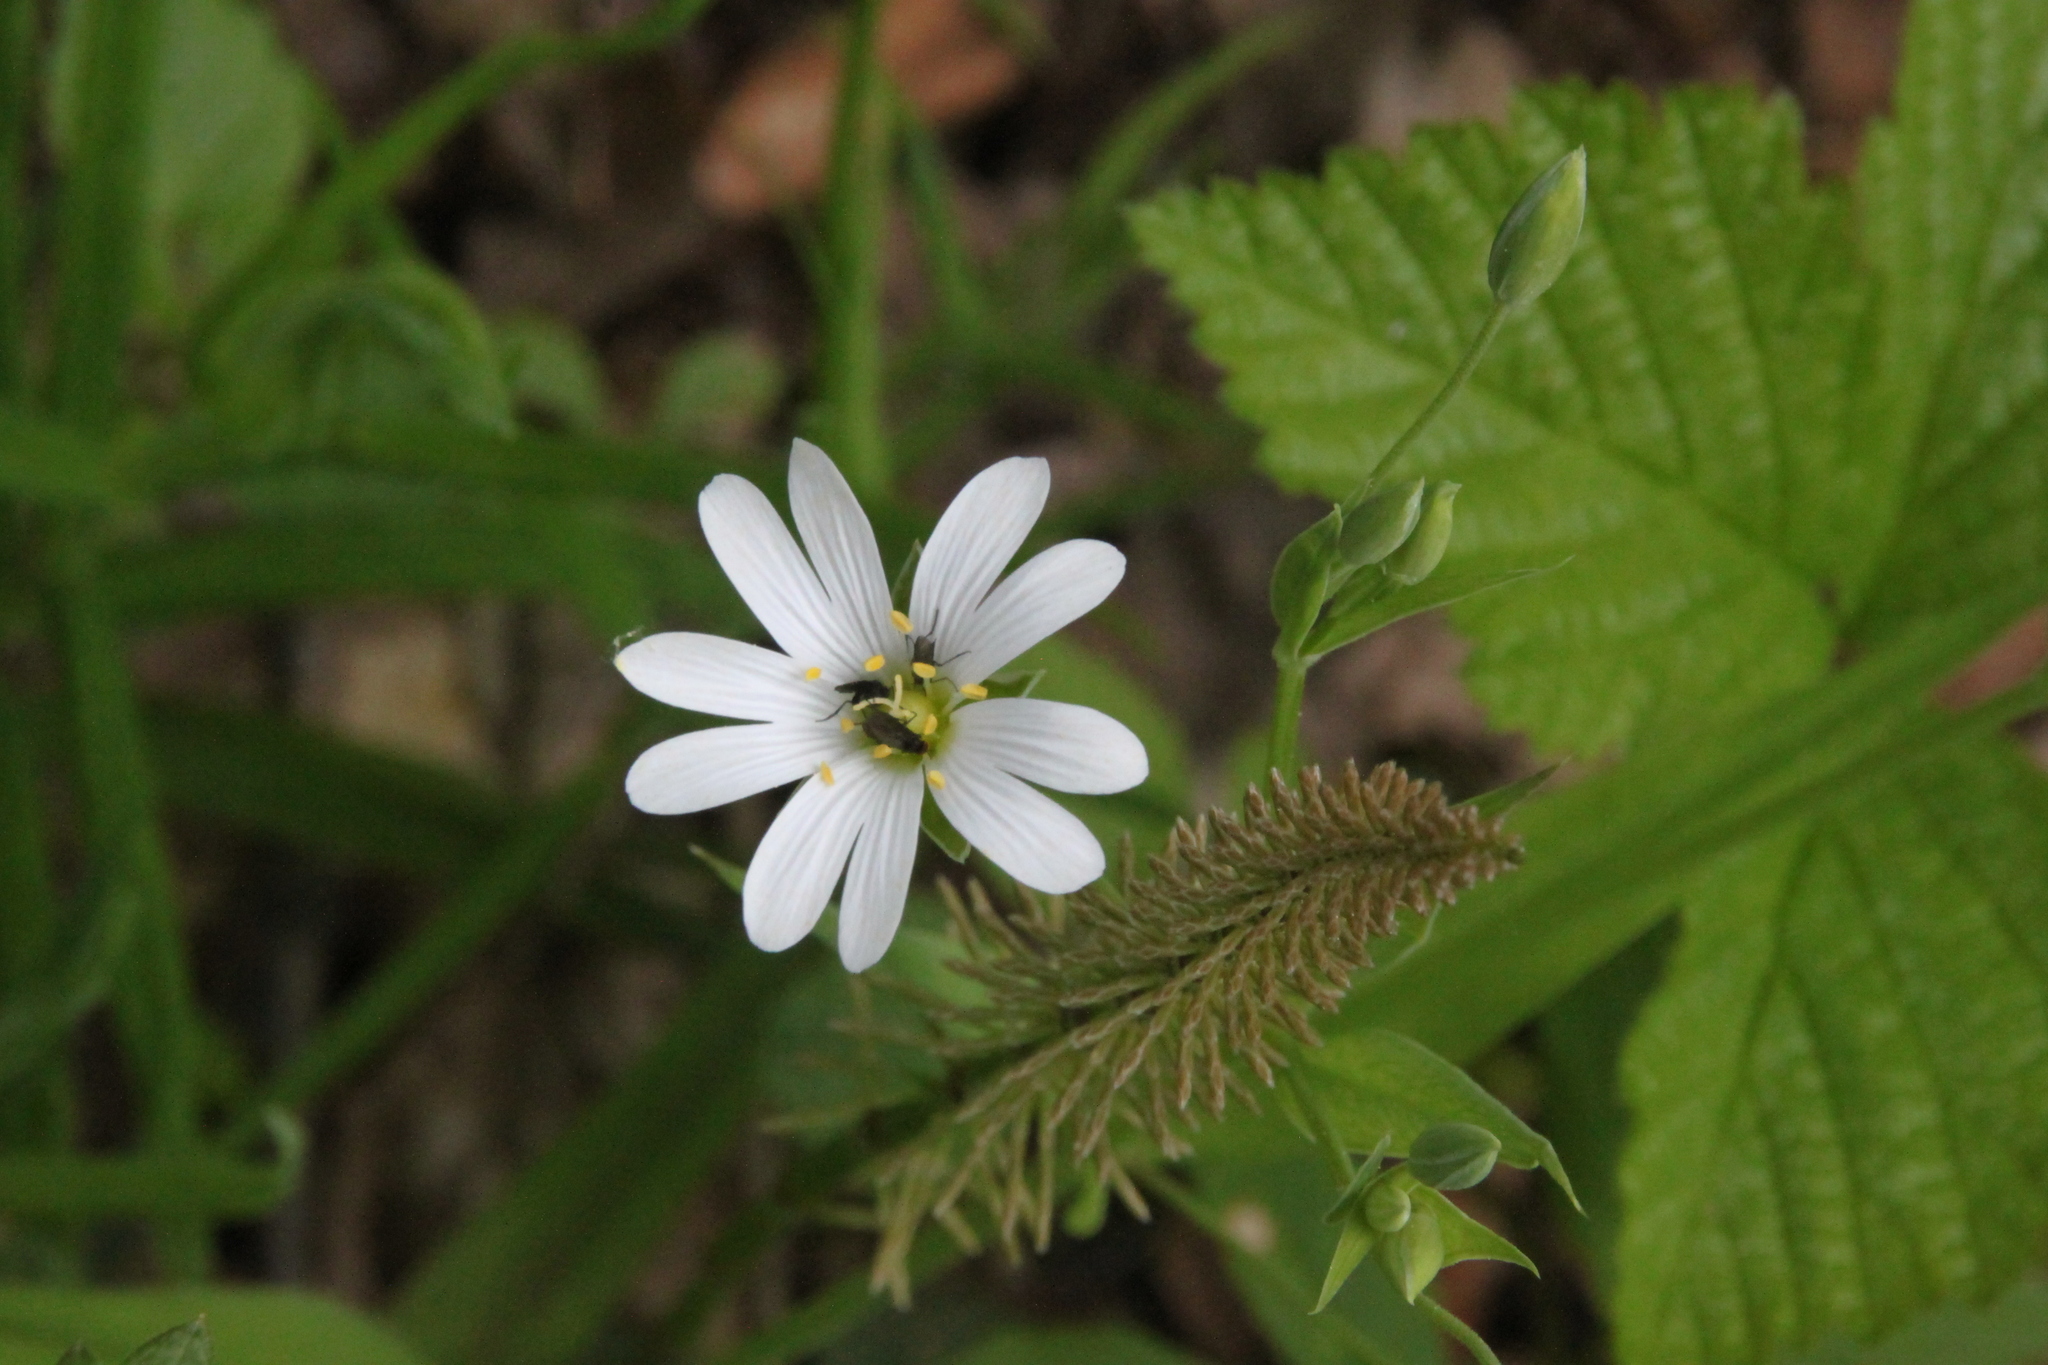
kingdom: Plantae
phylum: Tracheophyta
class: Magnoliopsida
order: Caryophyllales
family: Caryophyllaceae
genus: Rabelera
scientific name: Rabelera holostea
